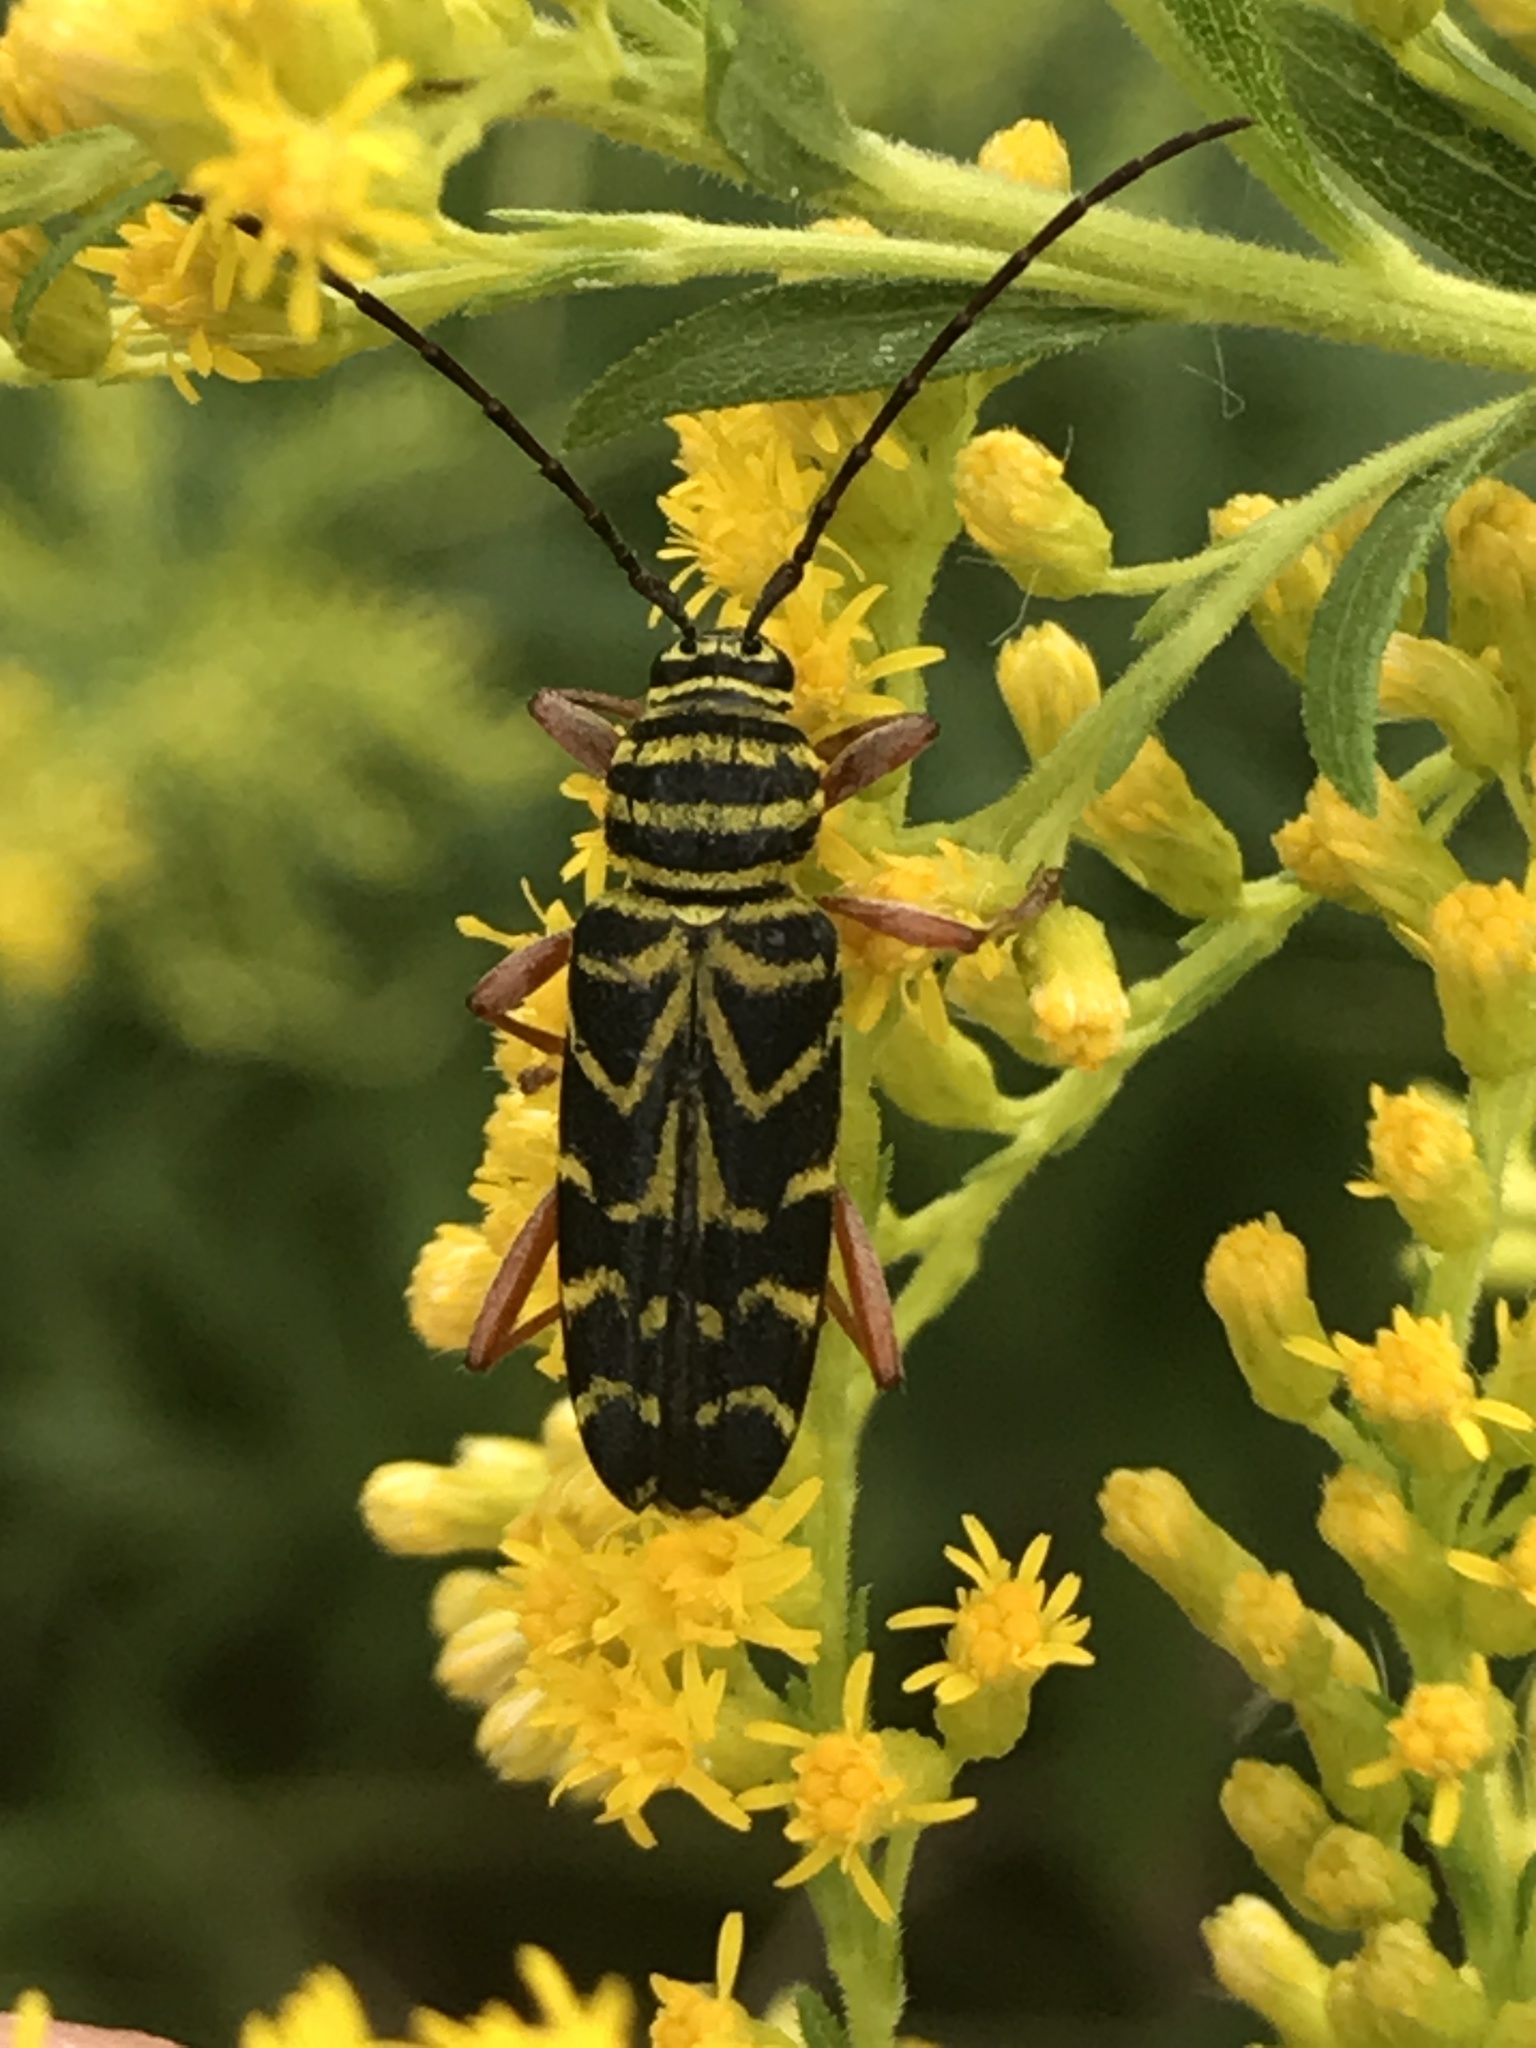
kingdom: Animalia
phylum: Arthropoda
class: Insecta
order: Coleoptera
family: Cerambycidae
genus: Megacyllene
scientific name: Megacyllene robiniae
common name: Locust borer
